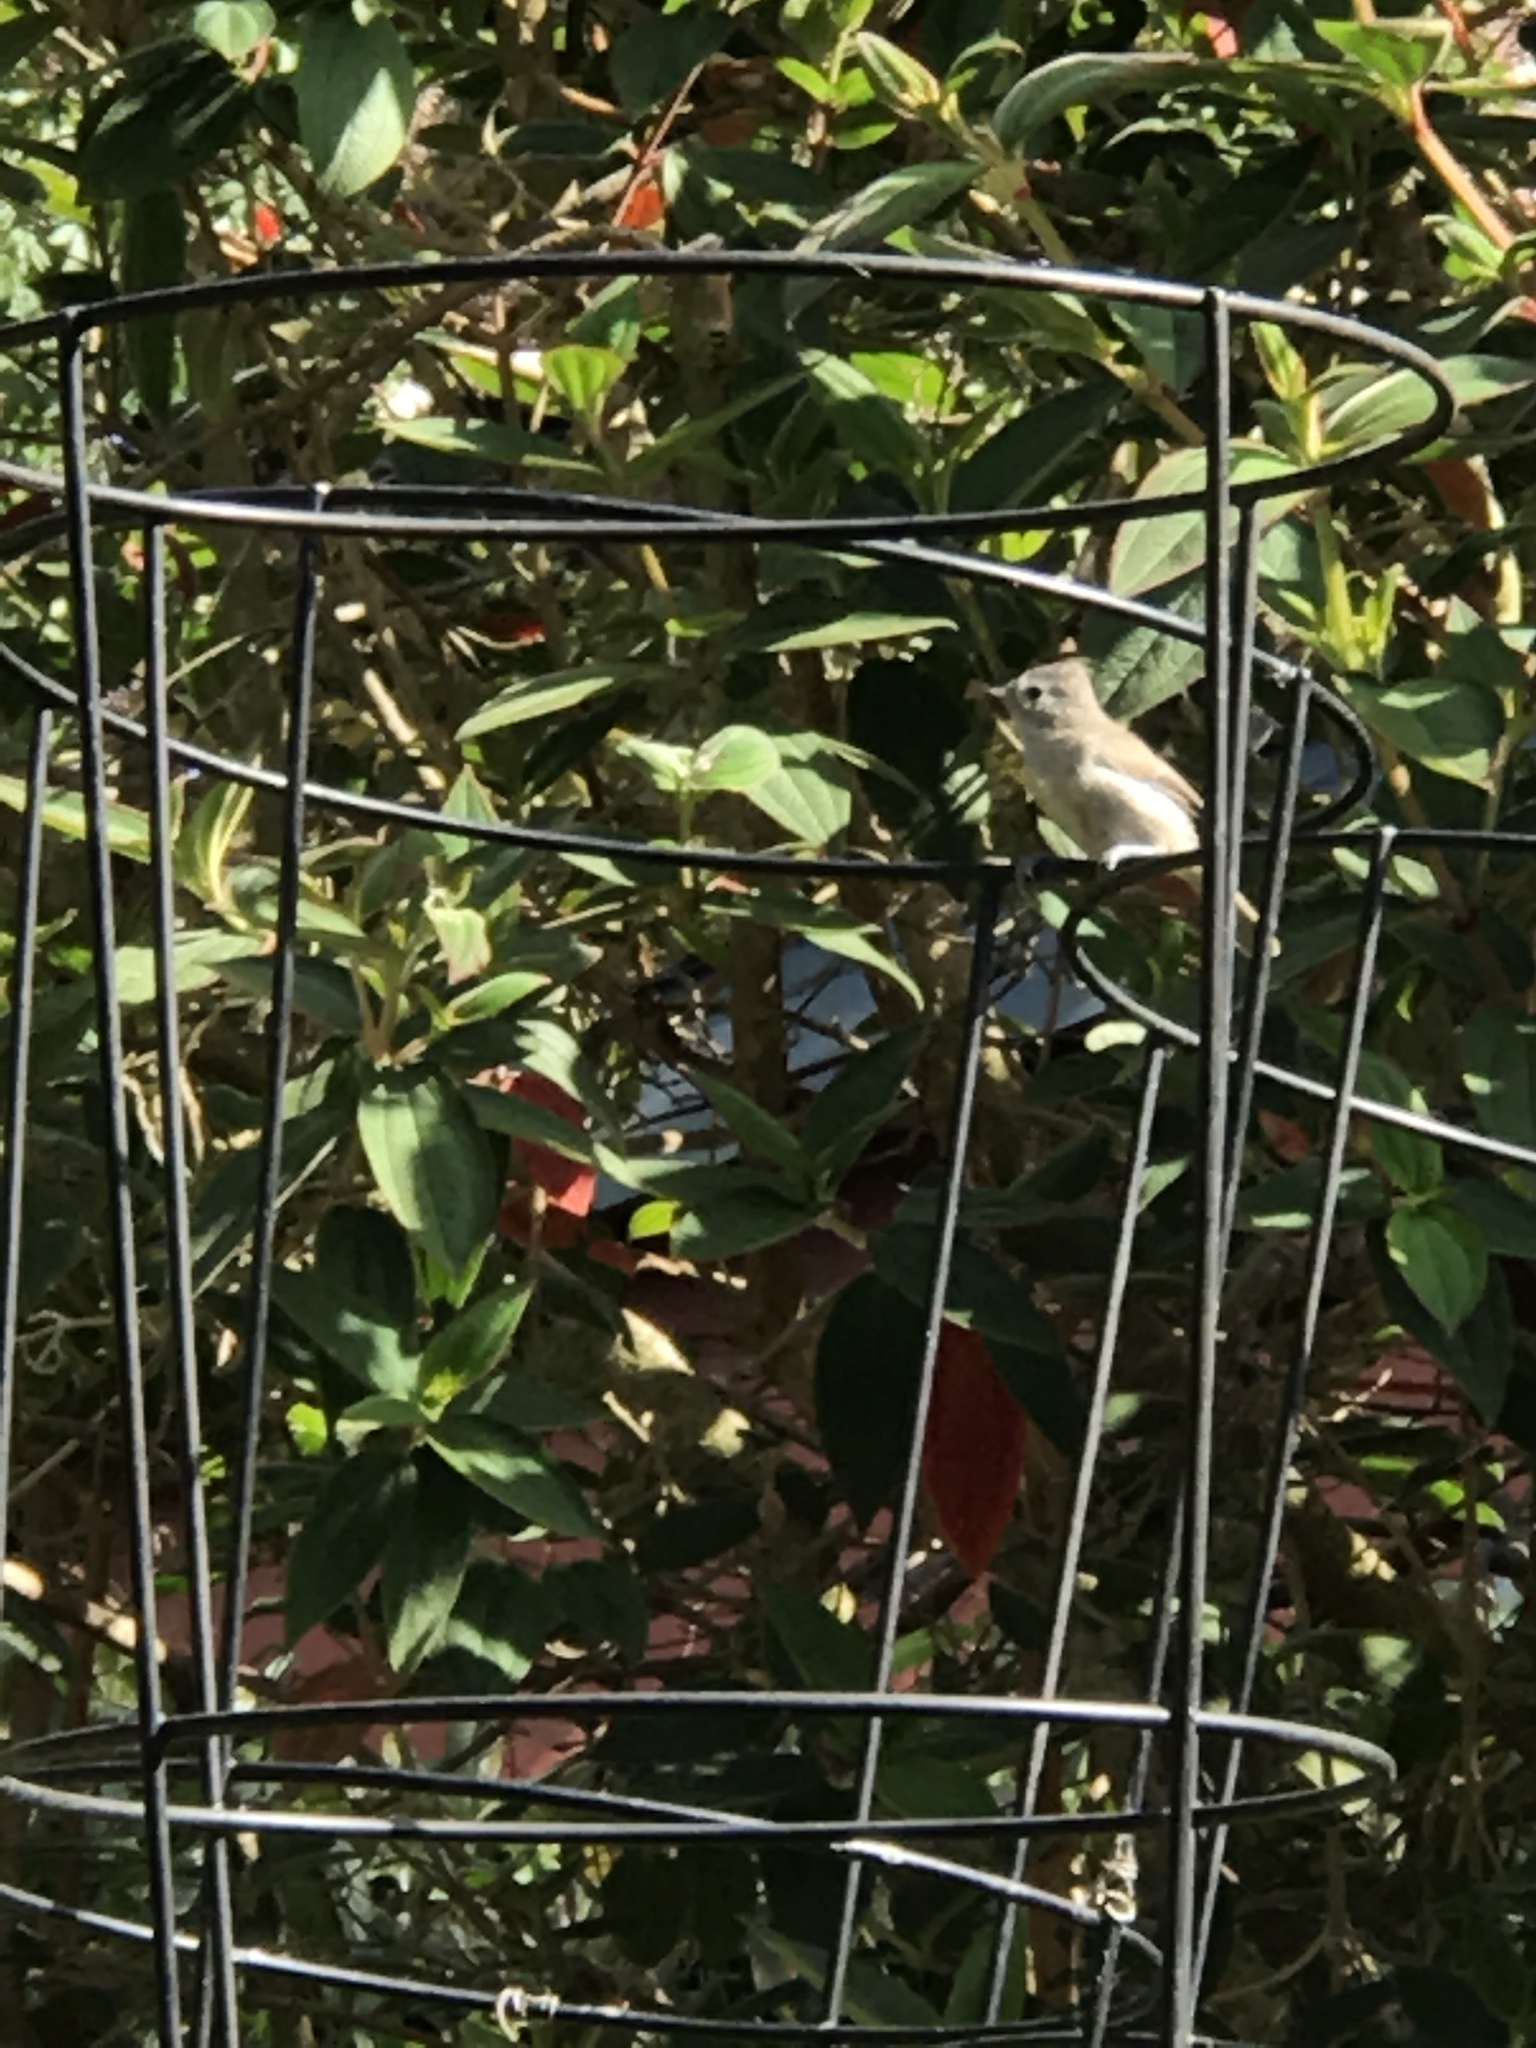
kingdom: Animalia
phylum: Chordata
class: Aves
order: Passeriformes
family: Paridae
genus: Baeolophus
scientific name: Baeolophus inornatus
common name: Oak titmouse
